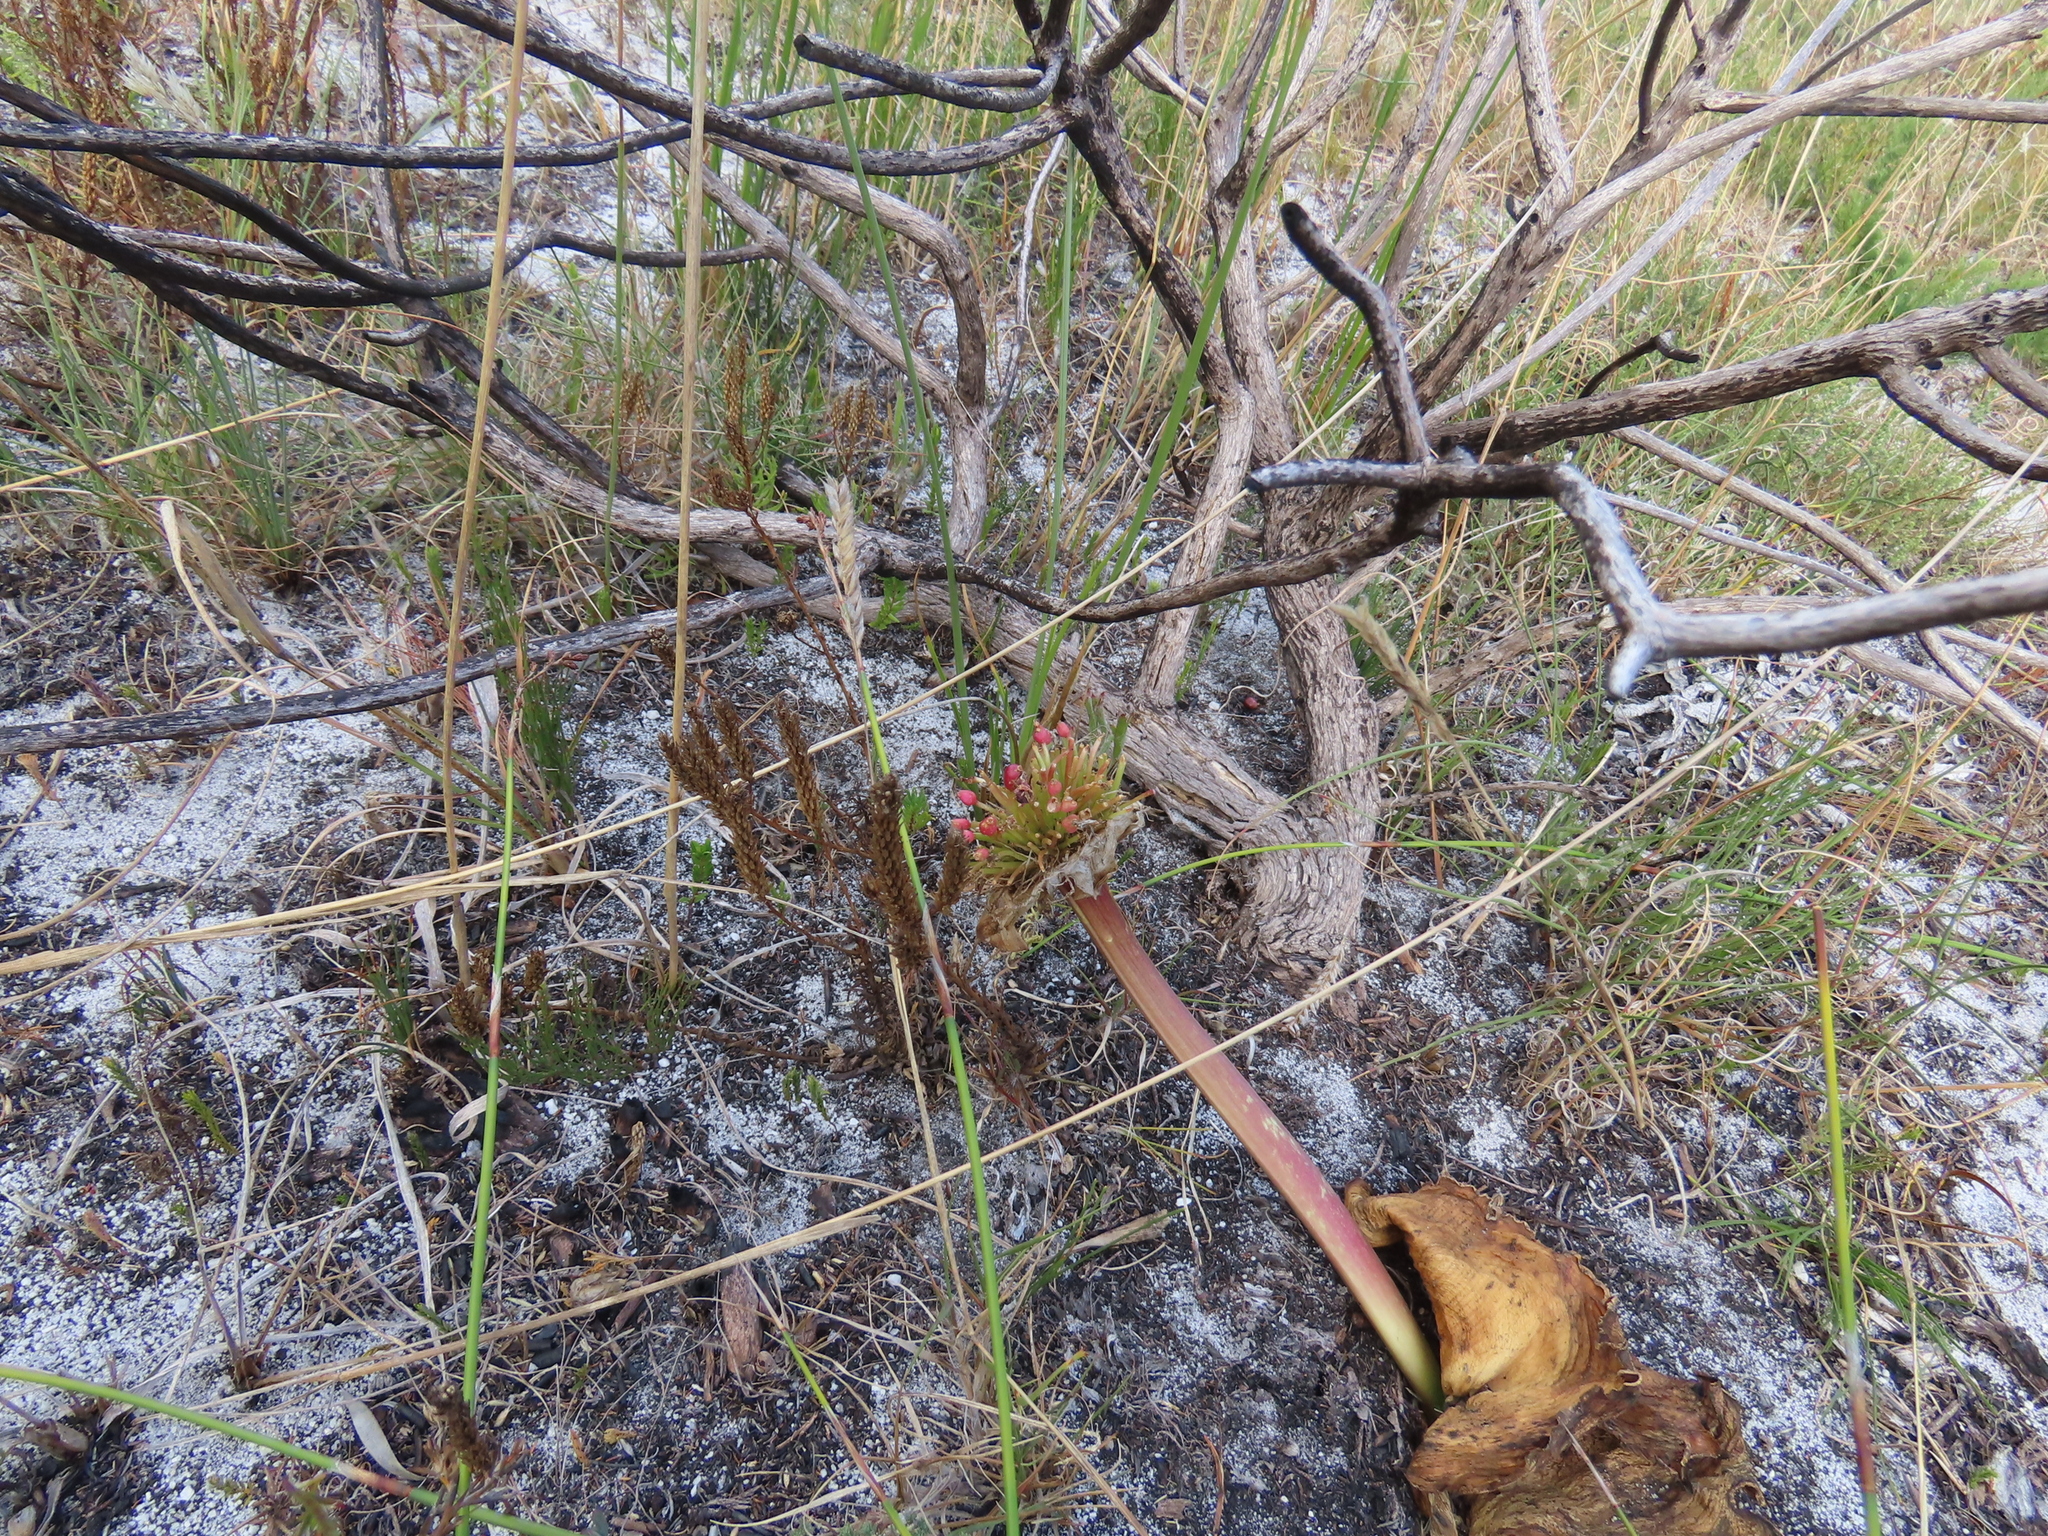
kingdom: Plantae
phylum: Tracheophyta
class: Liliopsida
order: Asparagales
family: Amaryllidaceae
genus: Haemanthus
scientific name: Haemanthus sanguineus
